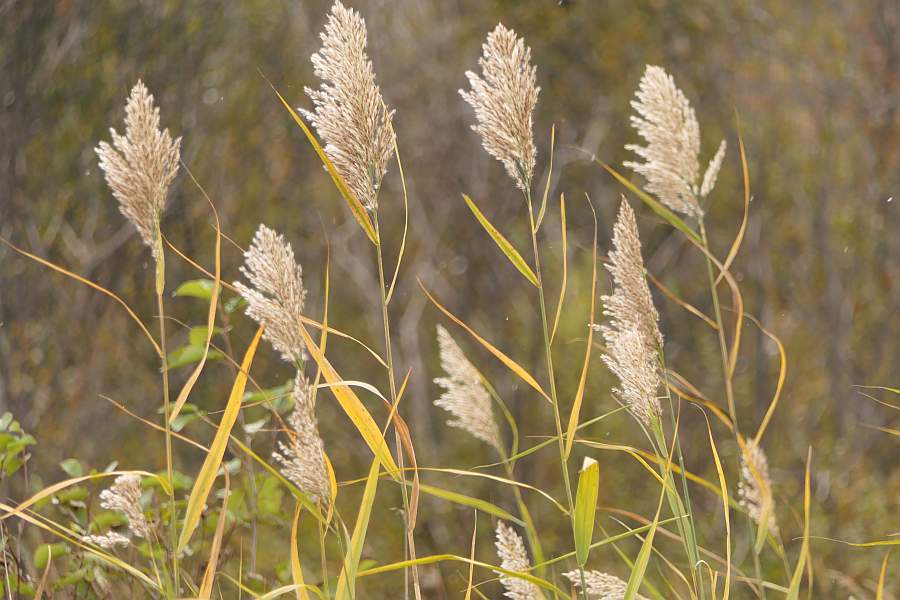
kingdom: Plantae
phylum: Tracheophyta
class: Liliopsida
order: Poales
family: Poaceae
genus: Phragmites
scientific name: Phragmites australis
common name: Common reed
